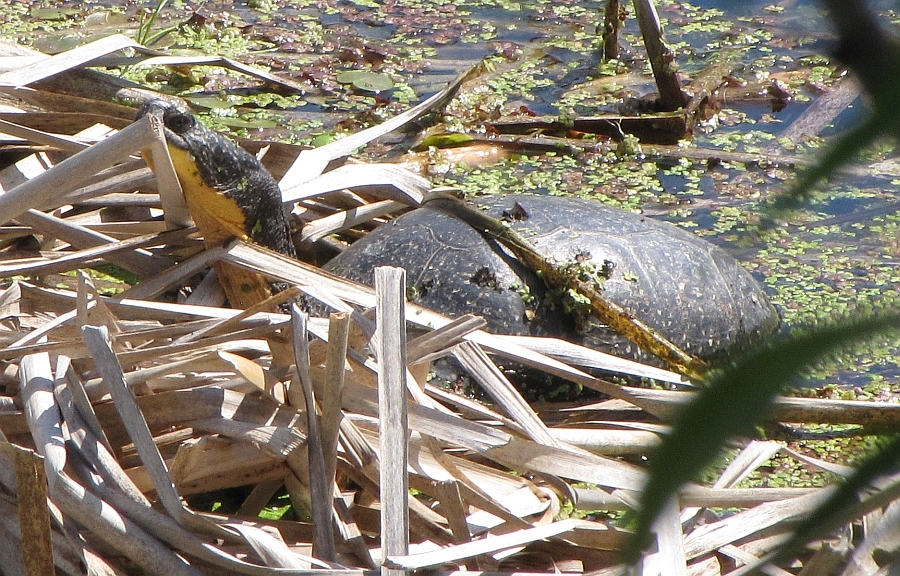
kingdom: Animalia
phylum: Chordata
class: Testudines
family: Emydidae
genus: Emys
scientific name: Emys blandingii
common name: Blanding's turtle
